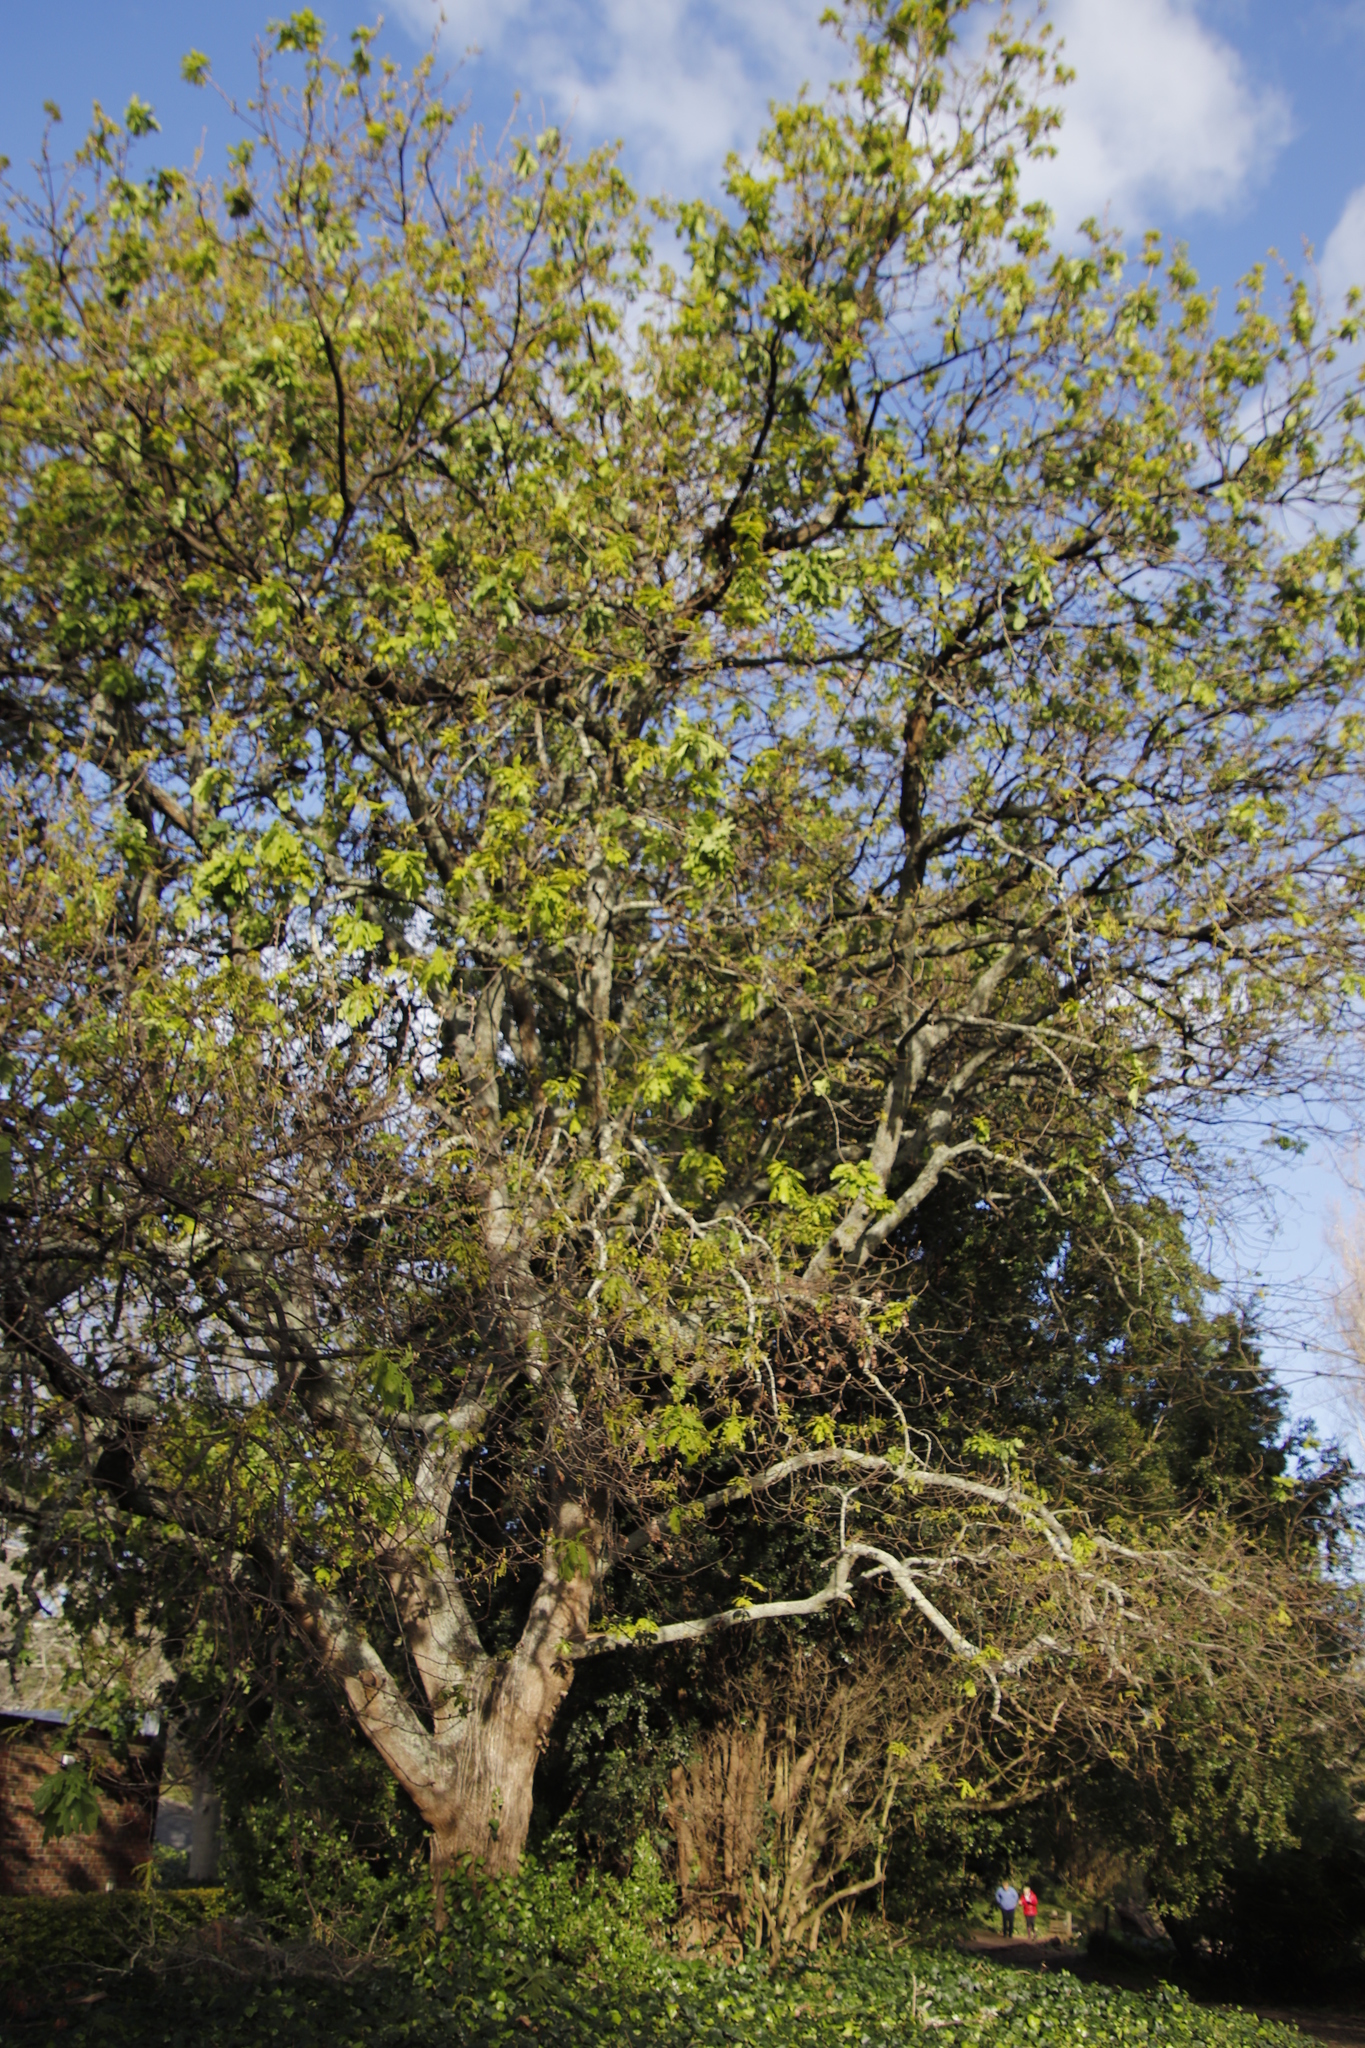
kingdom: Plantae
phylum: Tracheophyta
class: Magnoliopsida
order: Fagales
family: Fagaceae
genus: Quercus
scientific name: Quercus robur
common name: Pedunculate oak
